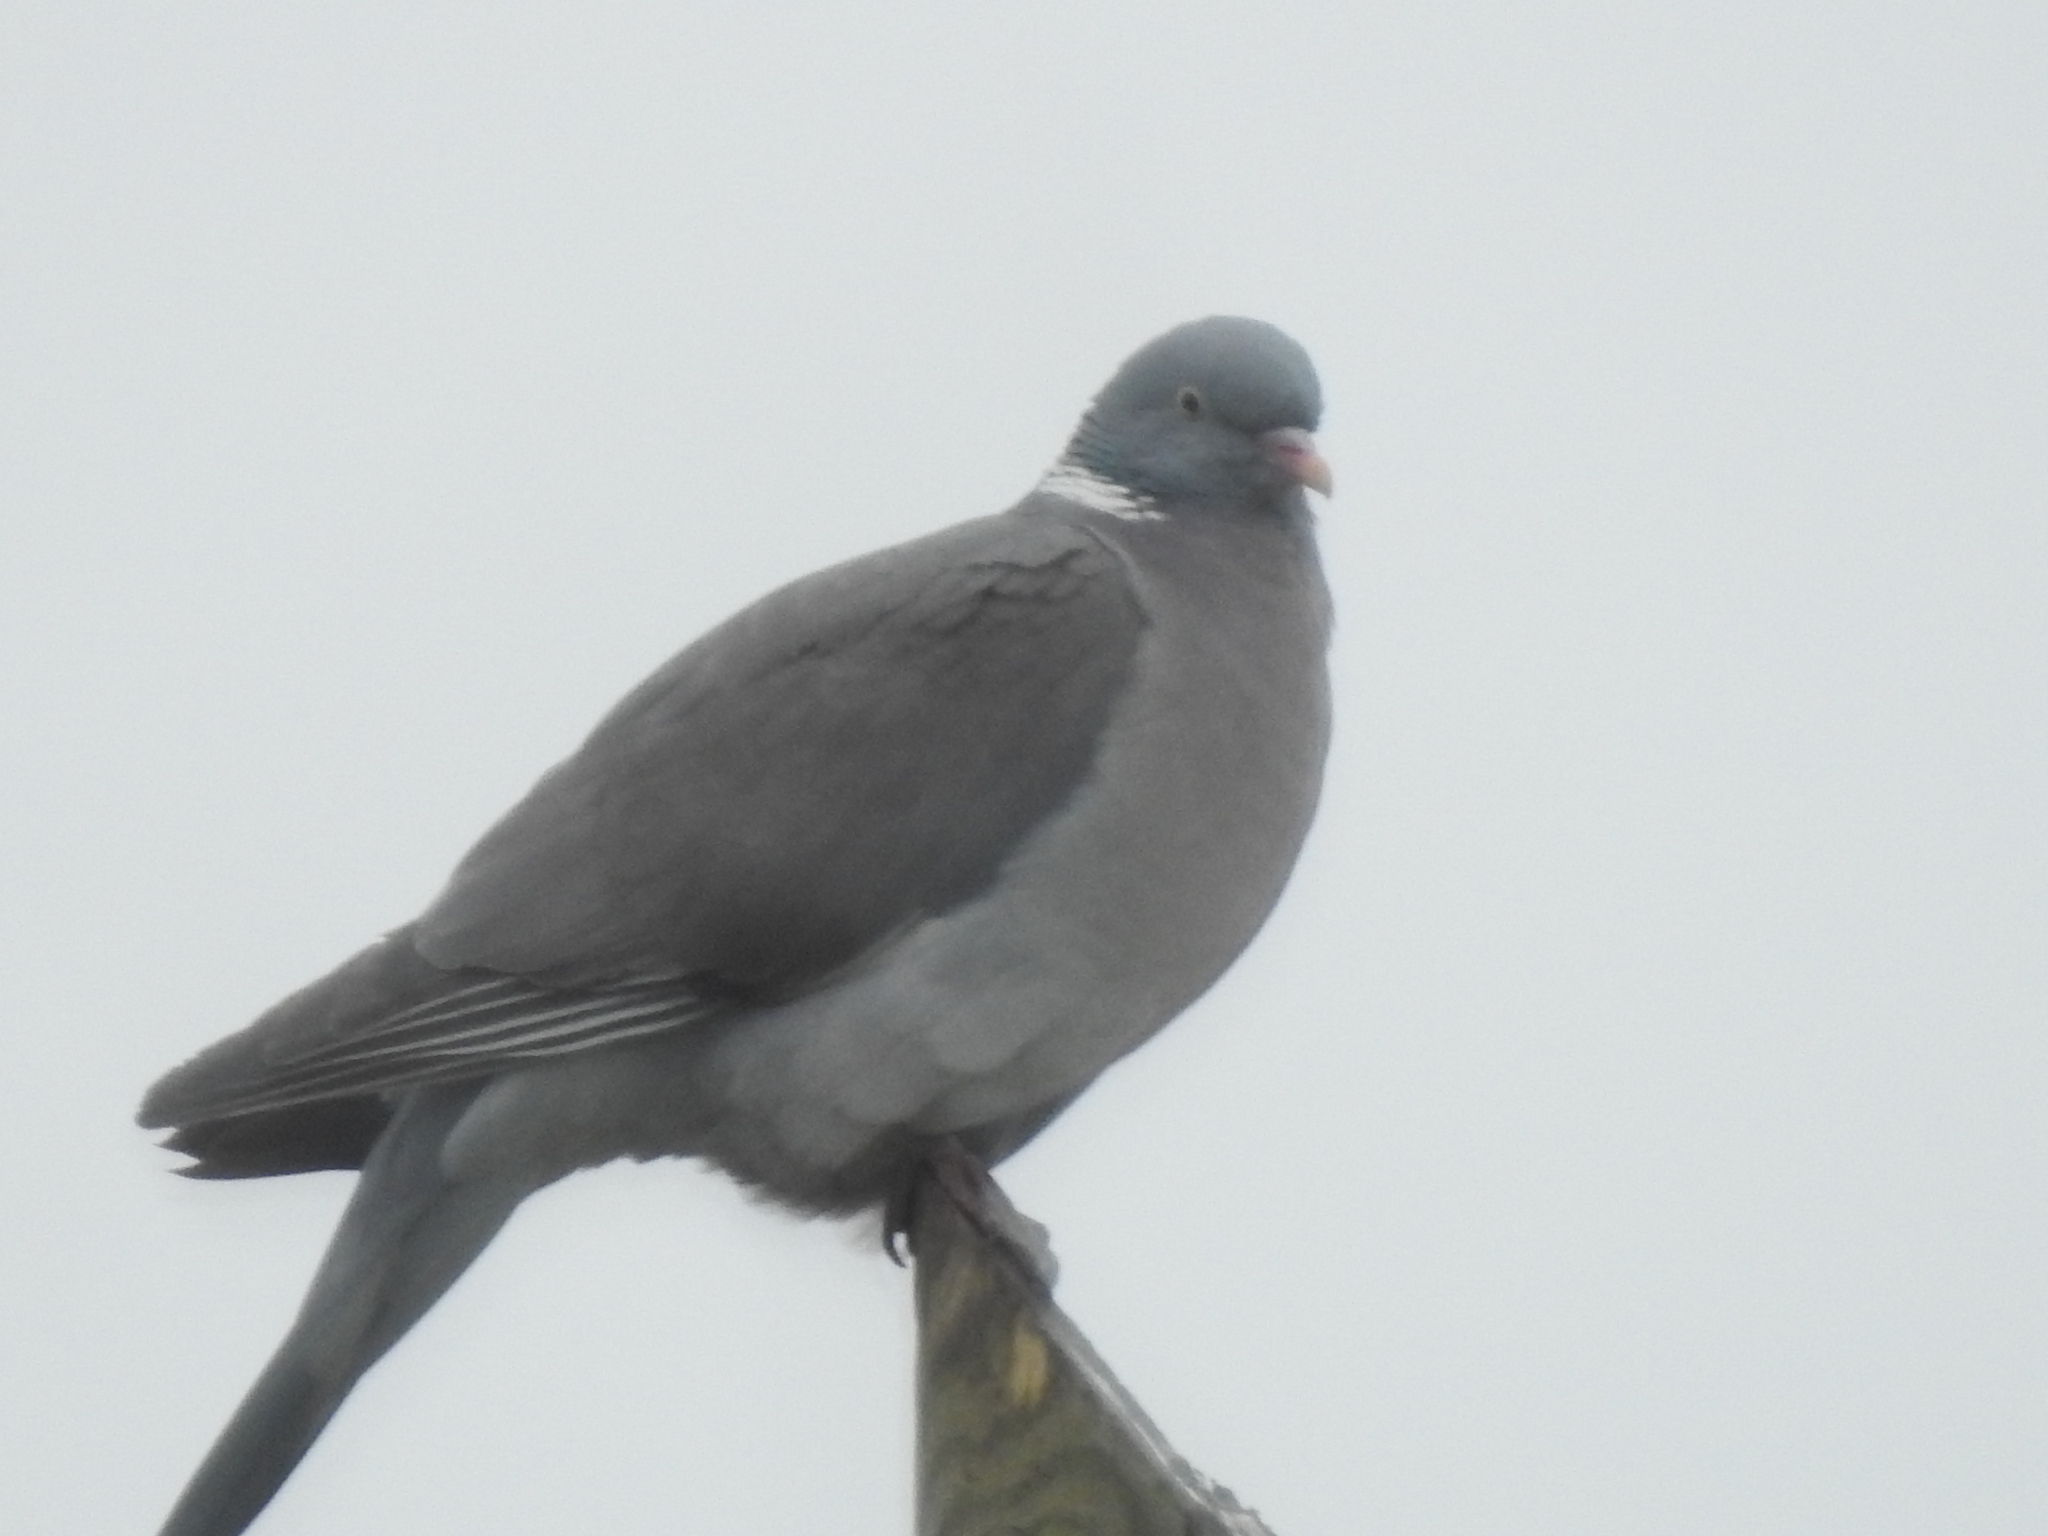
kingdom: Animalia
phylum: Chordata
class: Aves
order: Columbiformes
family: Columbidae
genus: Columba
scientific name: Columba palumbus
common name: Common wood pigeon
